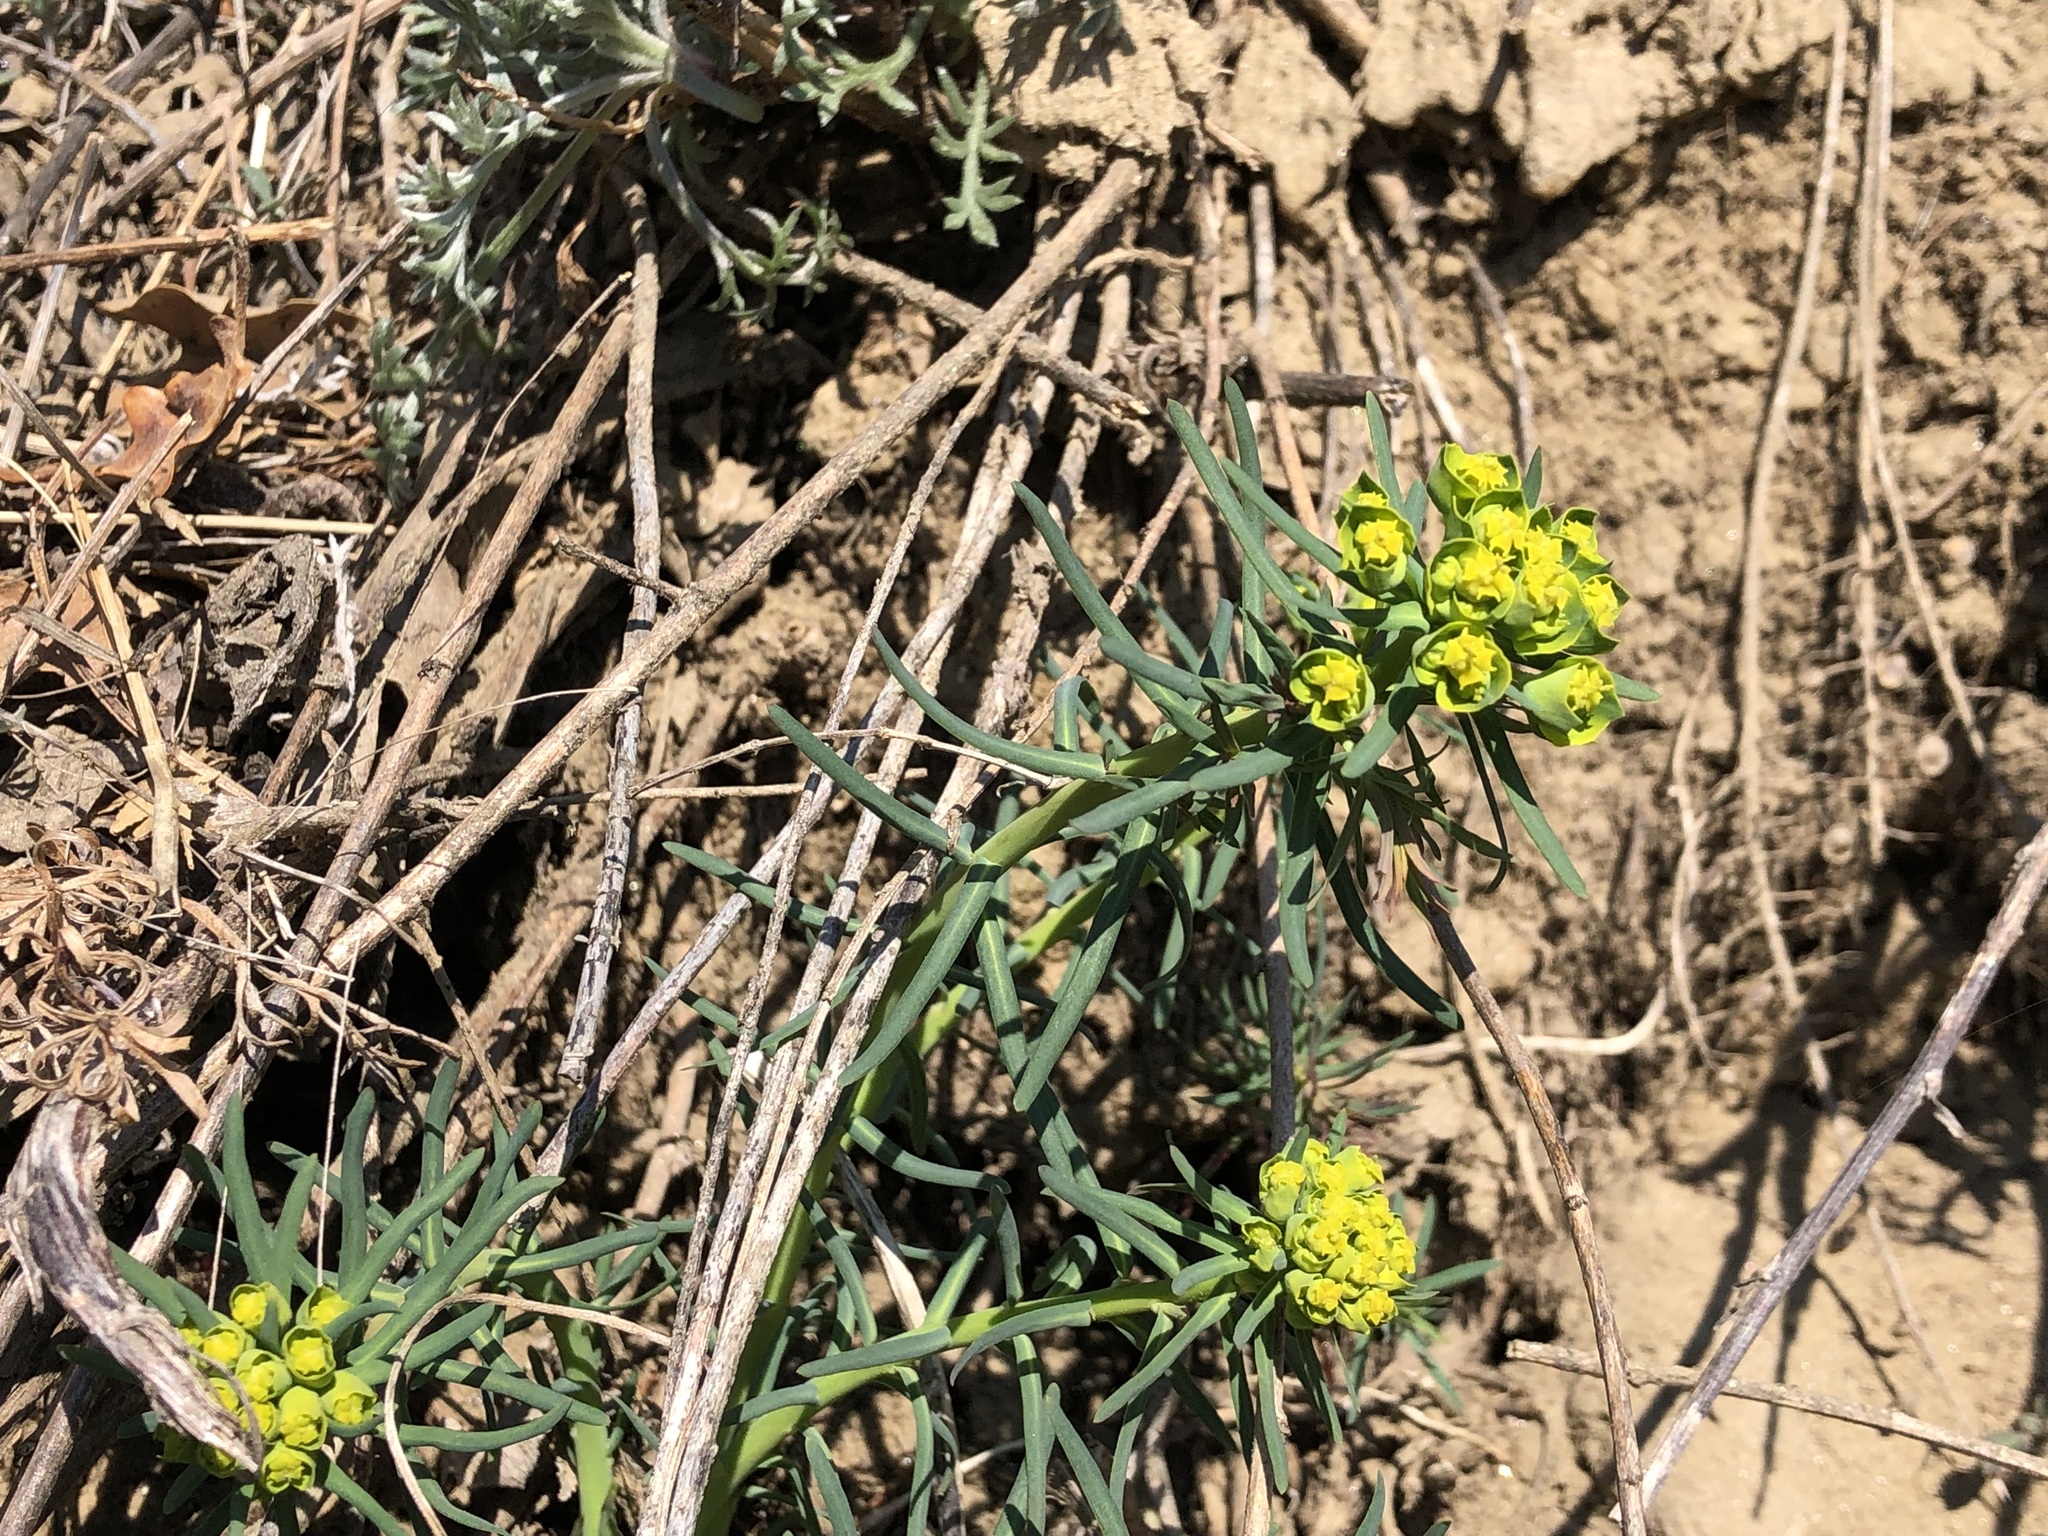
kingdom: Plantae
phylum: Tracheophyta
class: Magnoliopsida
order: Malpighiales
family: Euphorbiaceae
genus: Euphorbia
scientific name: Euphorbia cyparissias
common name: Cypress spurge
